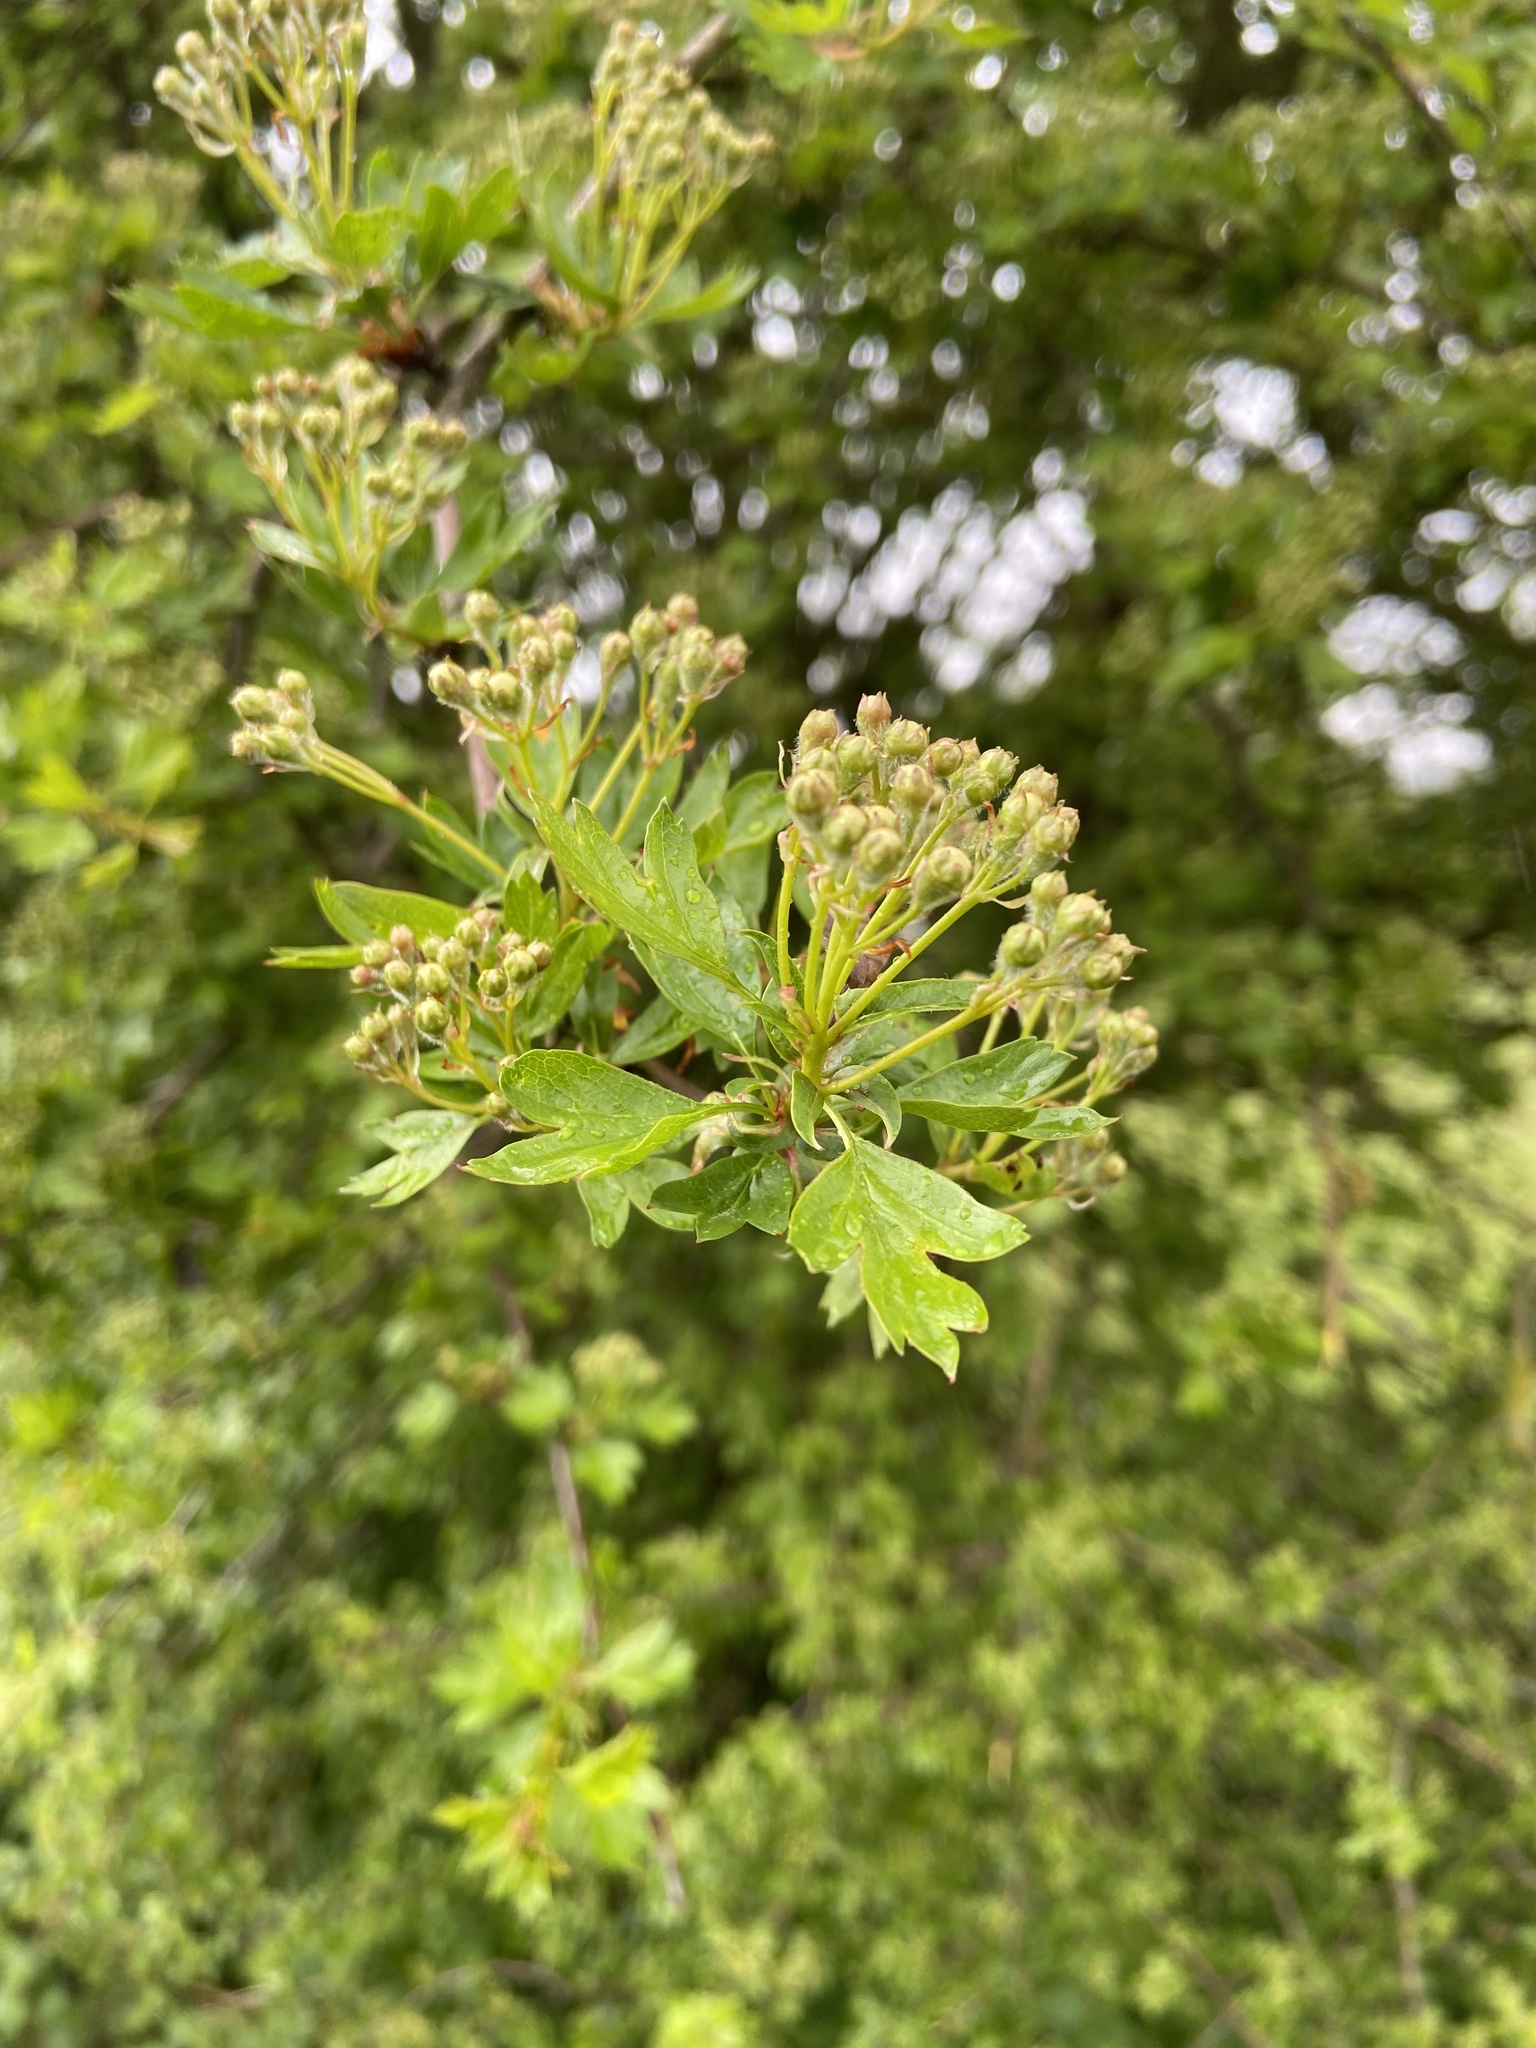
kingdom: Plantae
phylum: Tracheophyta
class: Magnoliopsida
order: Rosales
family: Rosaceae
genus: Crataegus
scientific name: Crataegus monogyna
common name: Hawthorn
